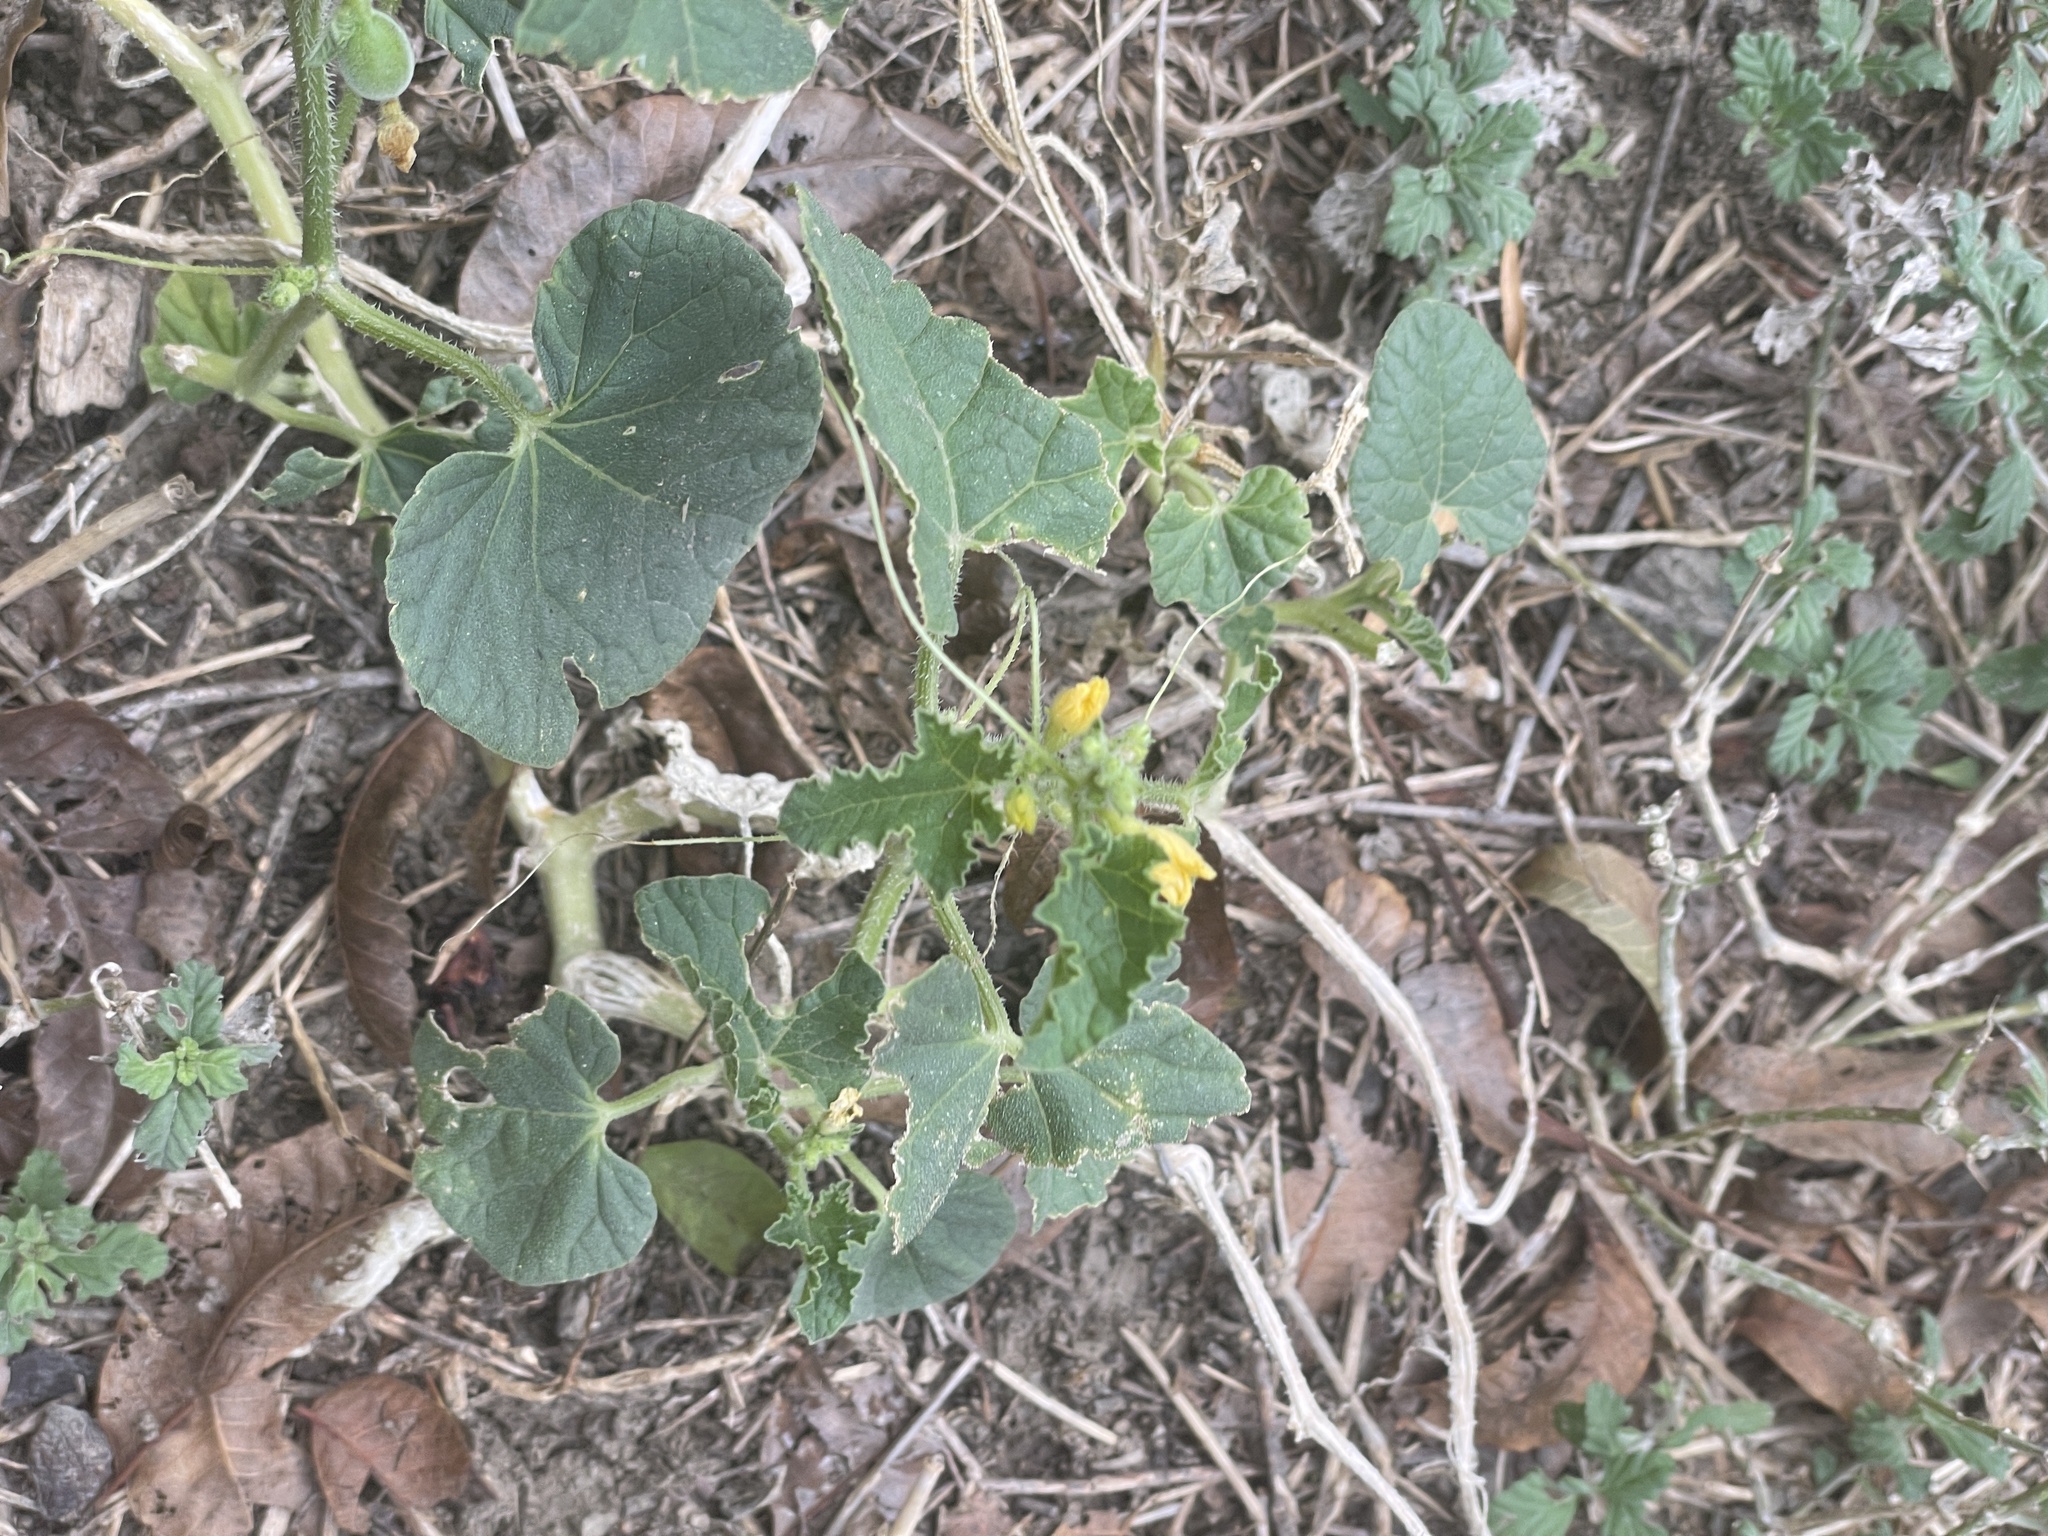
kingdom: Plantae
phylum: Tracheophyta
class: Magnoliopsida
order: Cucurbitales
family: Cucurbitaceae
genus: Cucumis
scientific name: Cucumis melo
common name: Melon
